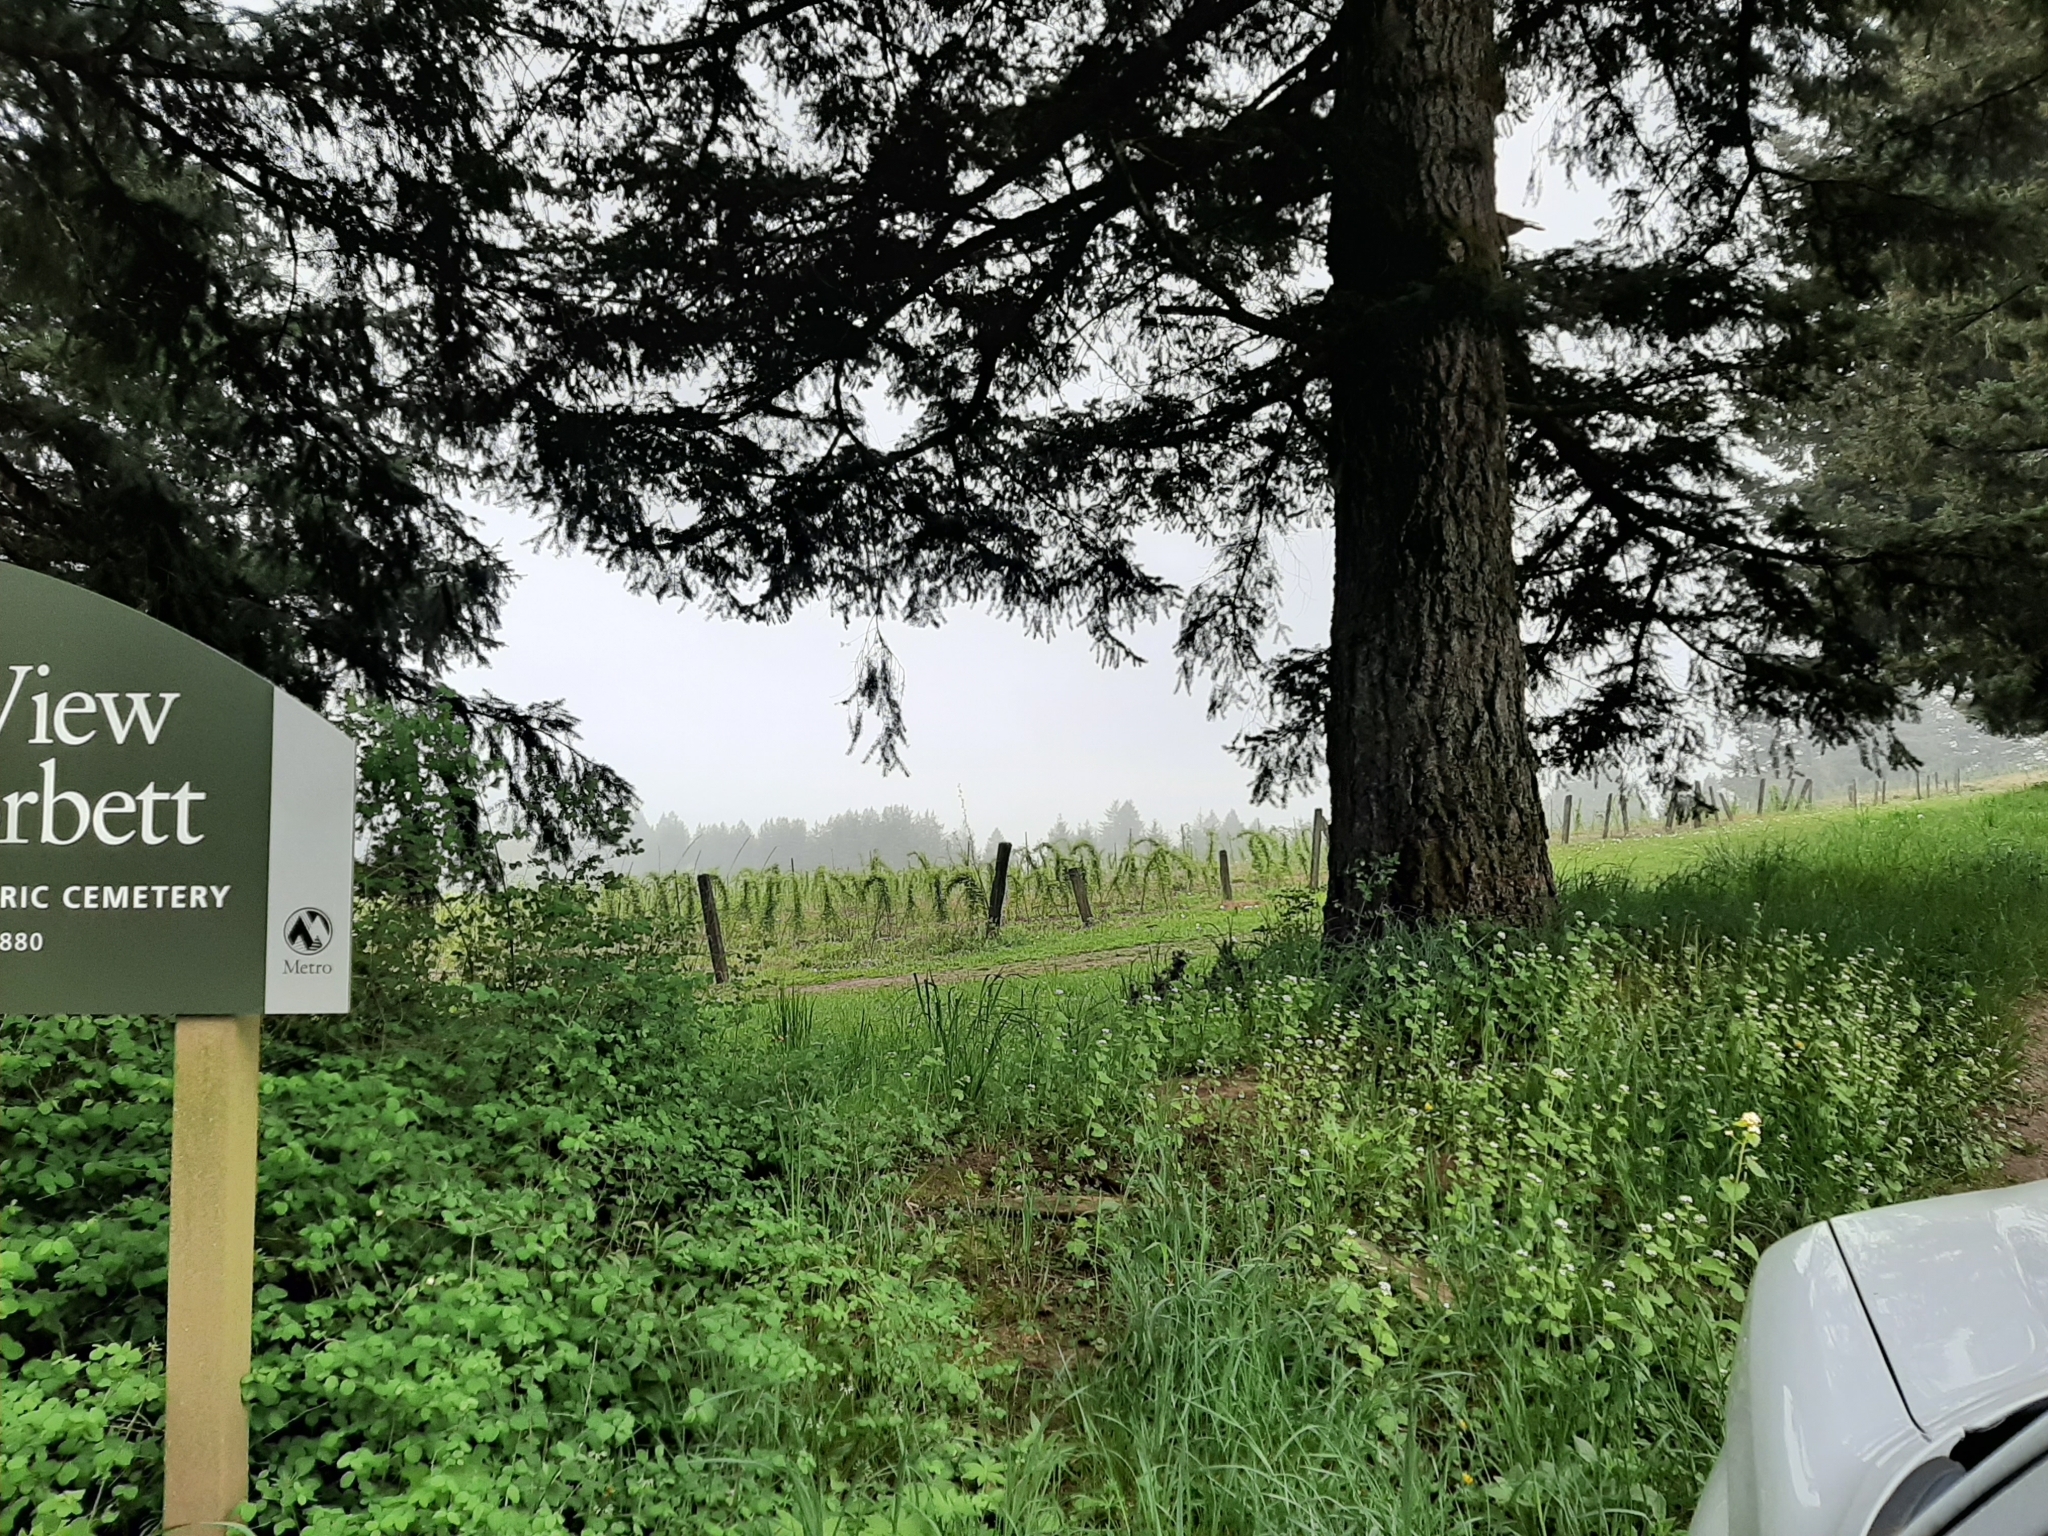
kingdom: Plantae
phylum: Tracheophyta
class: Magnoliopsida
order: Brassicales
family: Brassicaceae
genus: Alliaria
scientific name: Alliaria petiolata
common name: Garlic mustard
